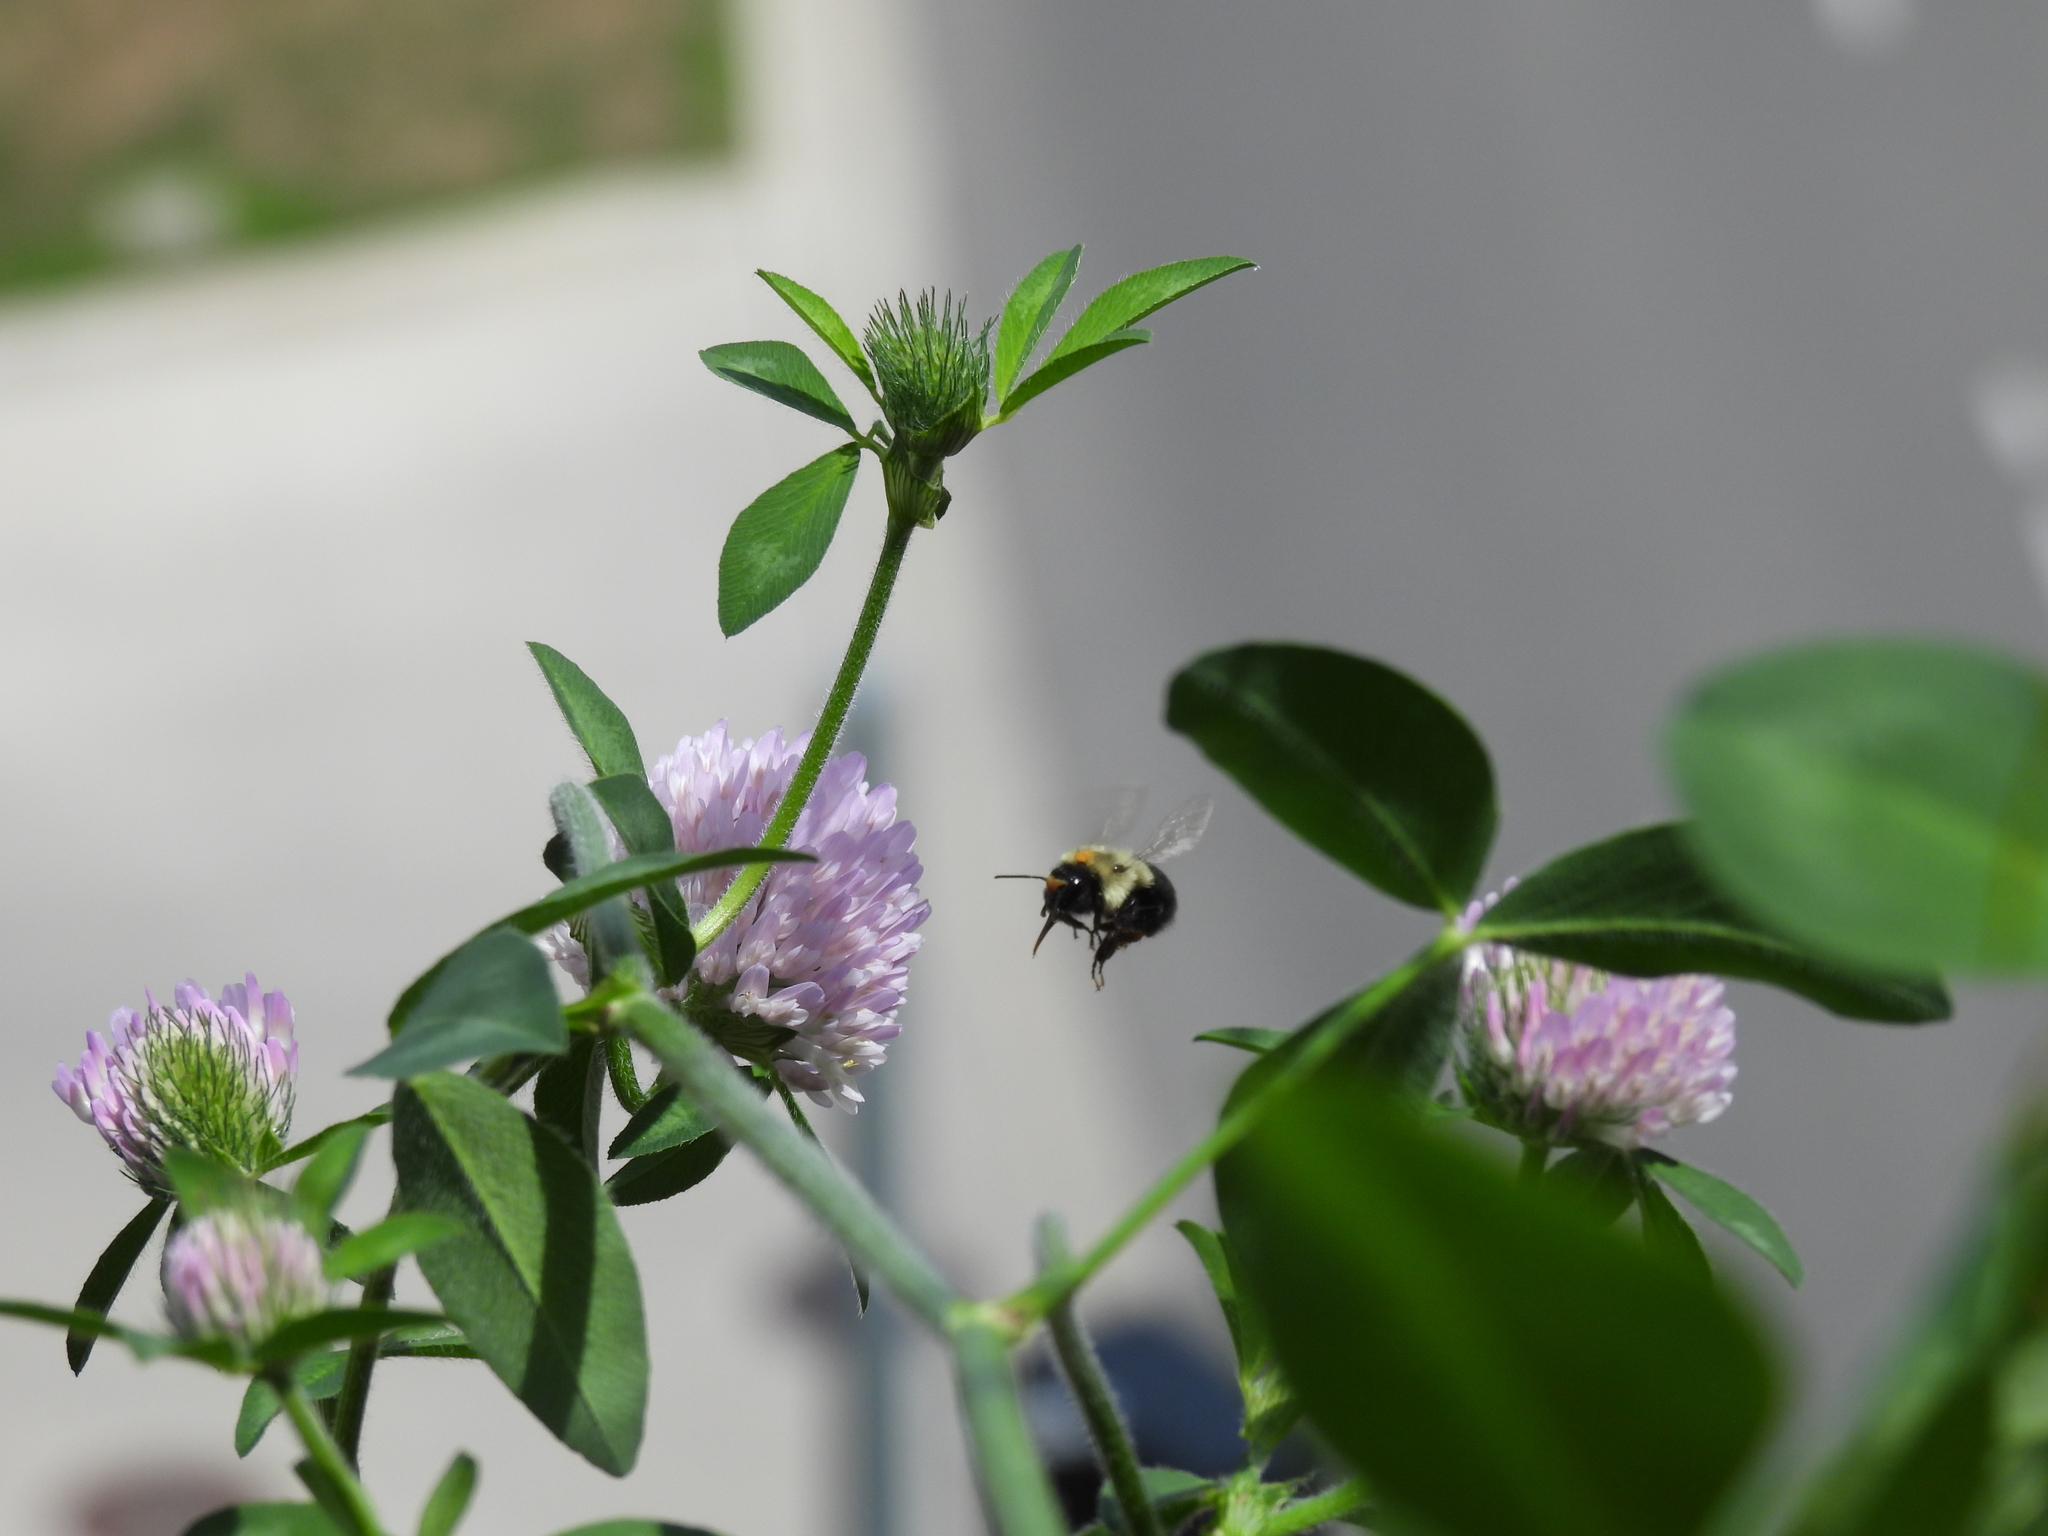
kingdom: Animalia
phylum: Arthropoda
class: Insecta
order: Hymenoptera
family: Apidae
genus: Bombus
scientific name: Bombus impatiens
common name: Common eastern bumble bee
